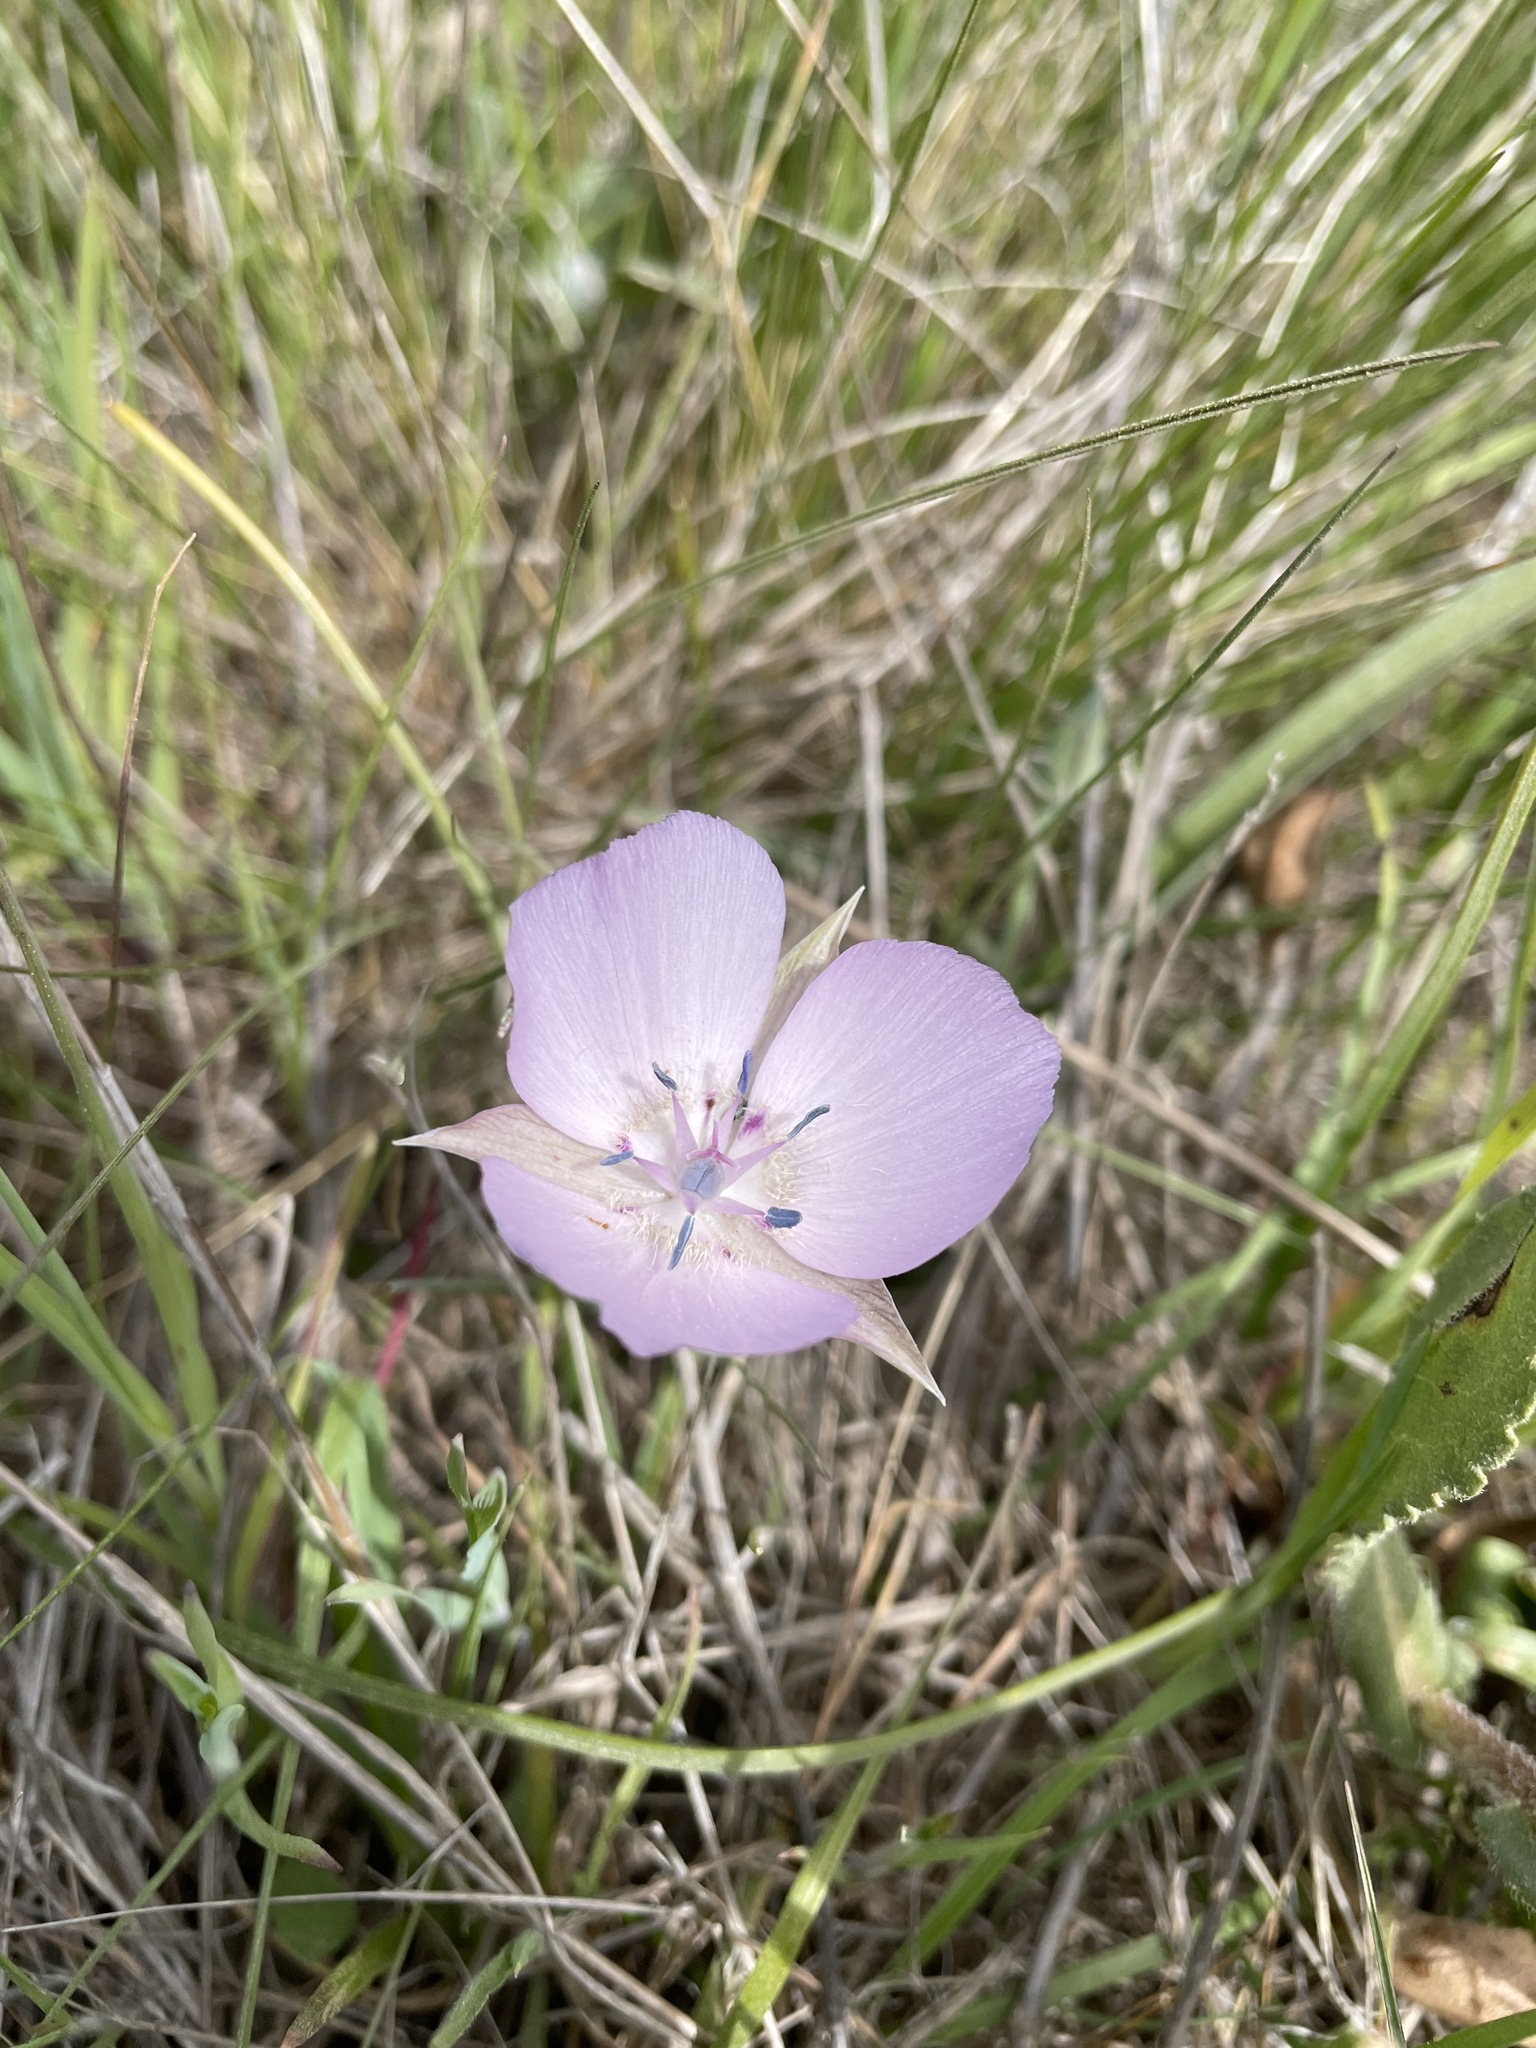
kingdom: Plantae
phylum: Tracheophyta
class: Liliopsida
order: Liliales
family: Liliaceae
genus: Calochortus
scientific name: Calochortus uniflorus
